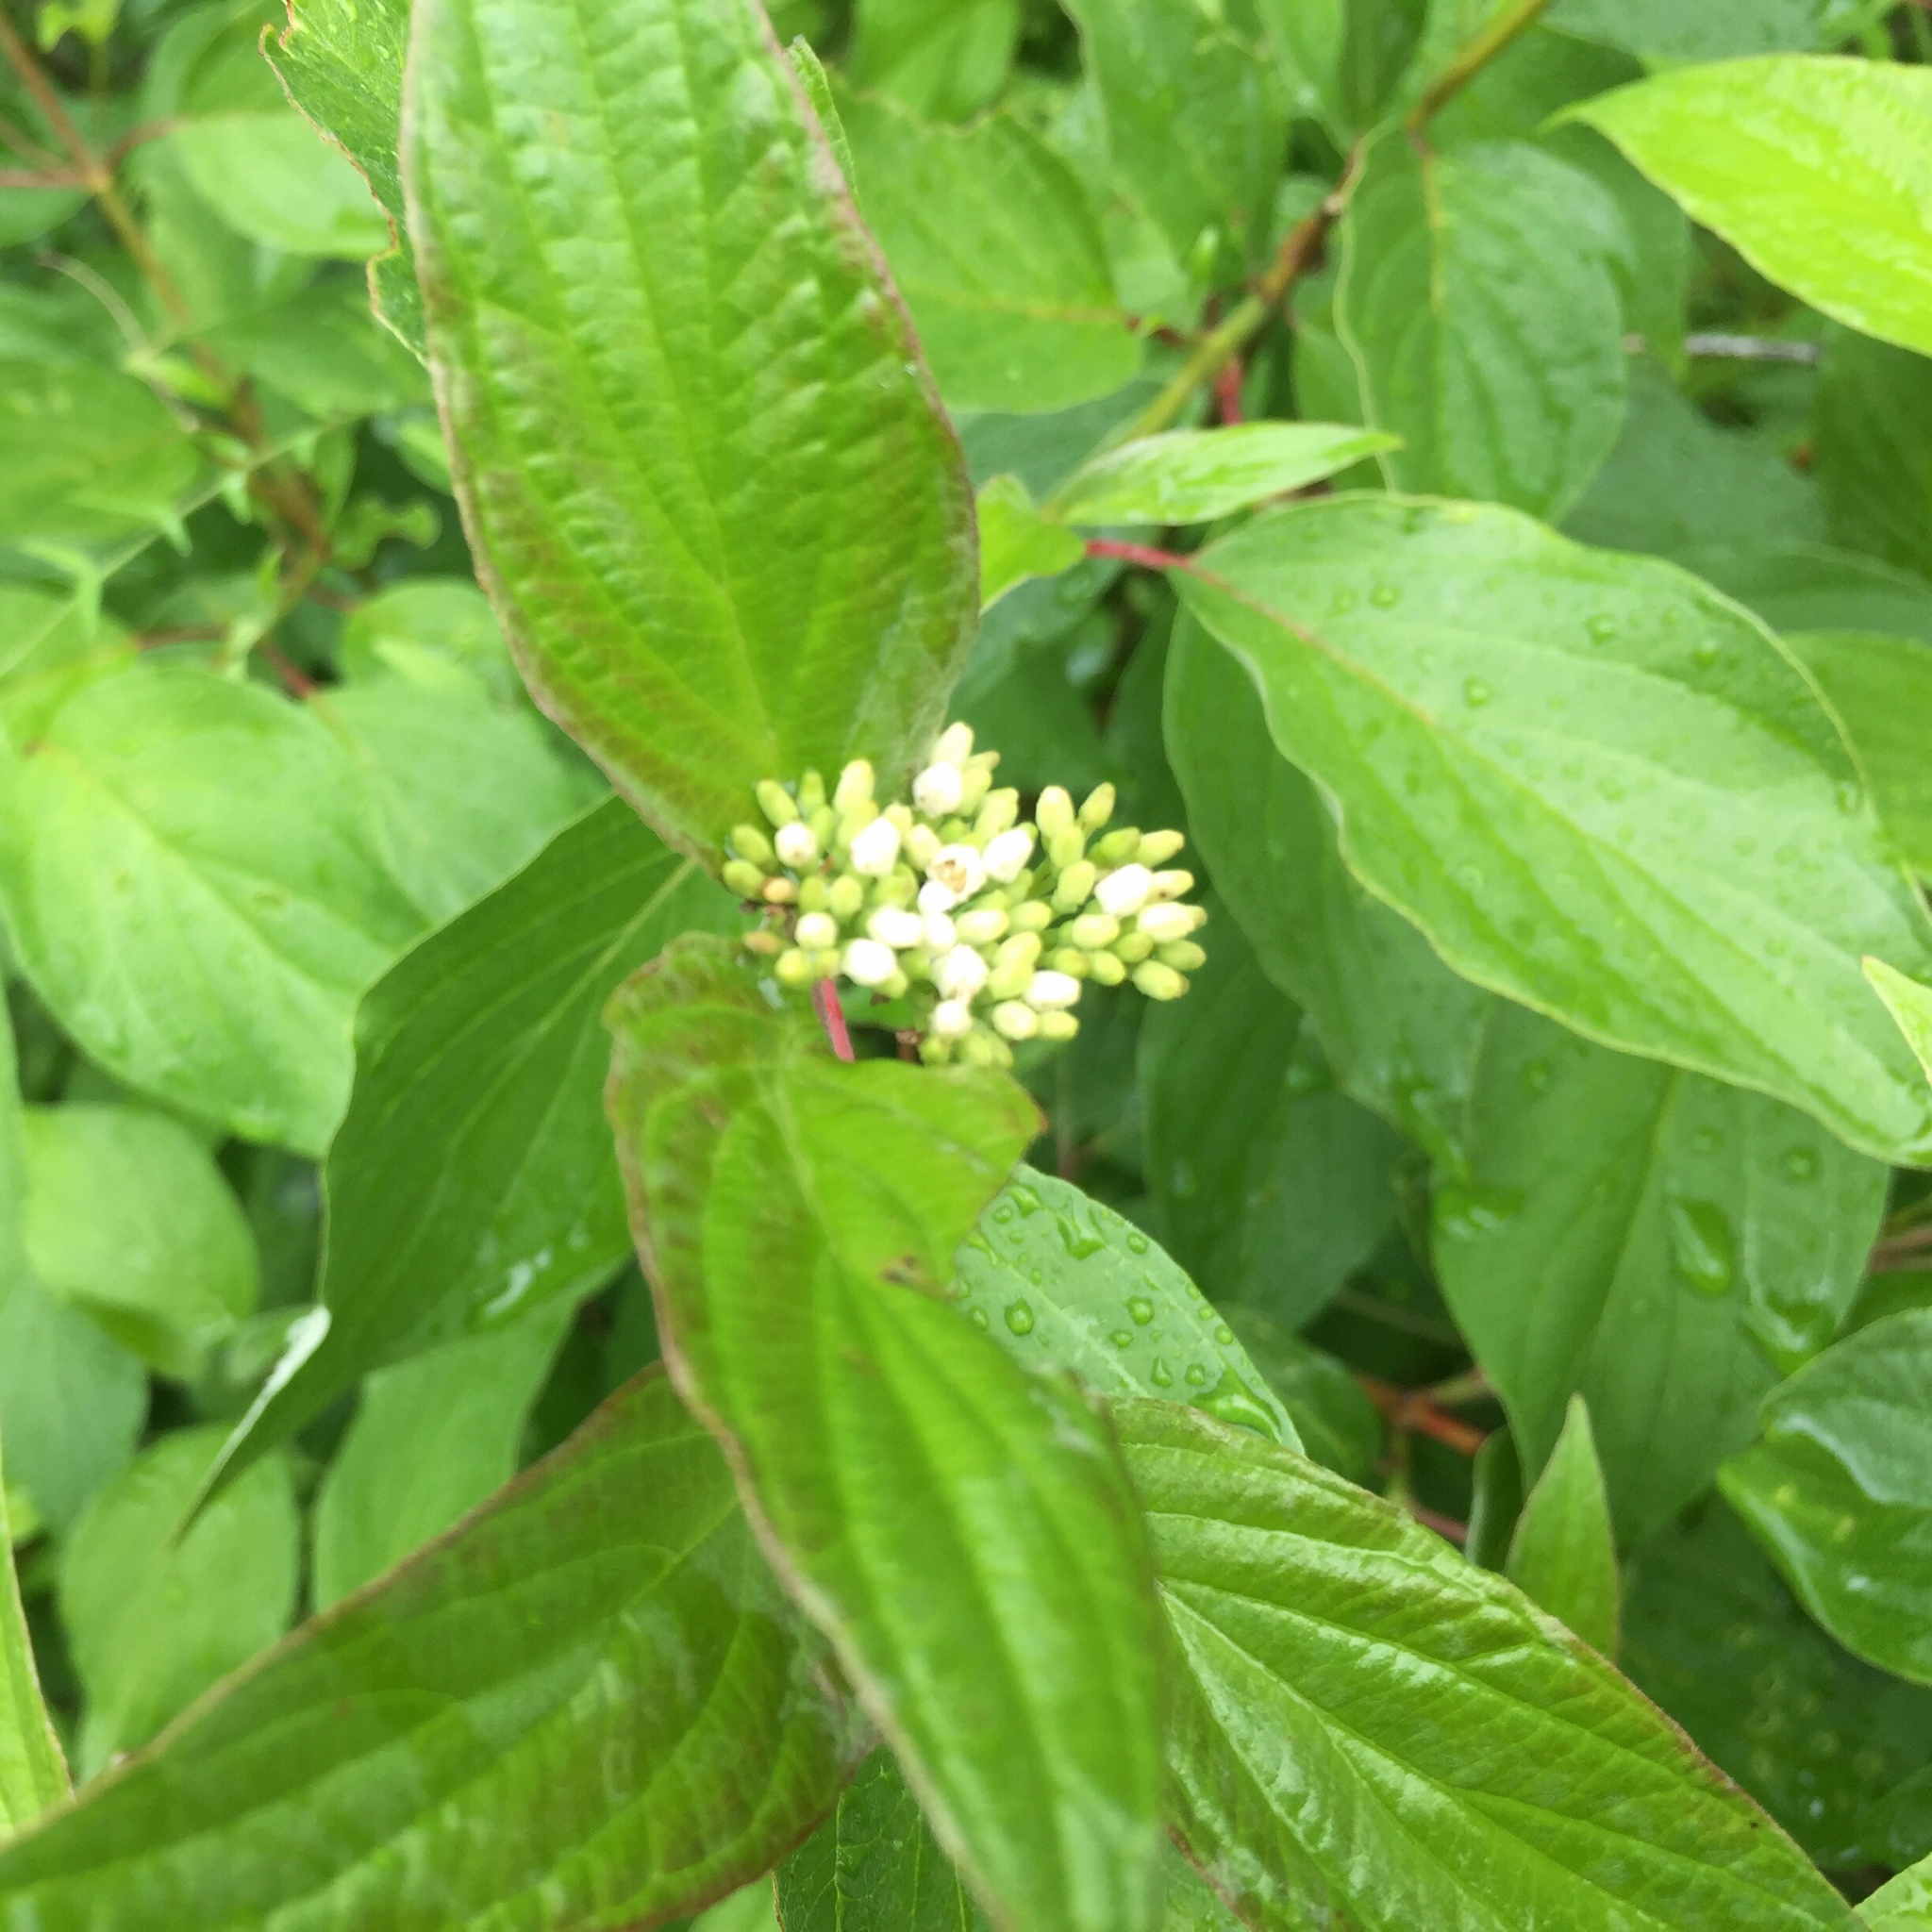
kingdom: Plantae
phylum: Tracheophyta
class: Magnoliopsida
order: Cornales
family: Cornaceae
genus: Cornus
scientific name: Cornus sericea
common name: Red-osier dogwood
